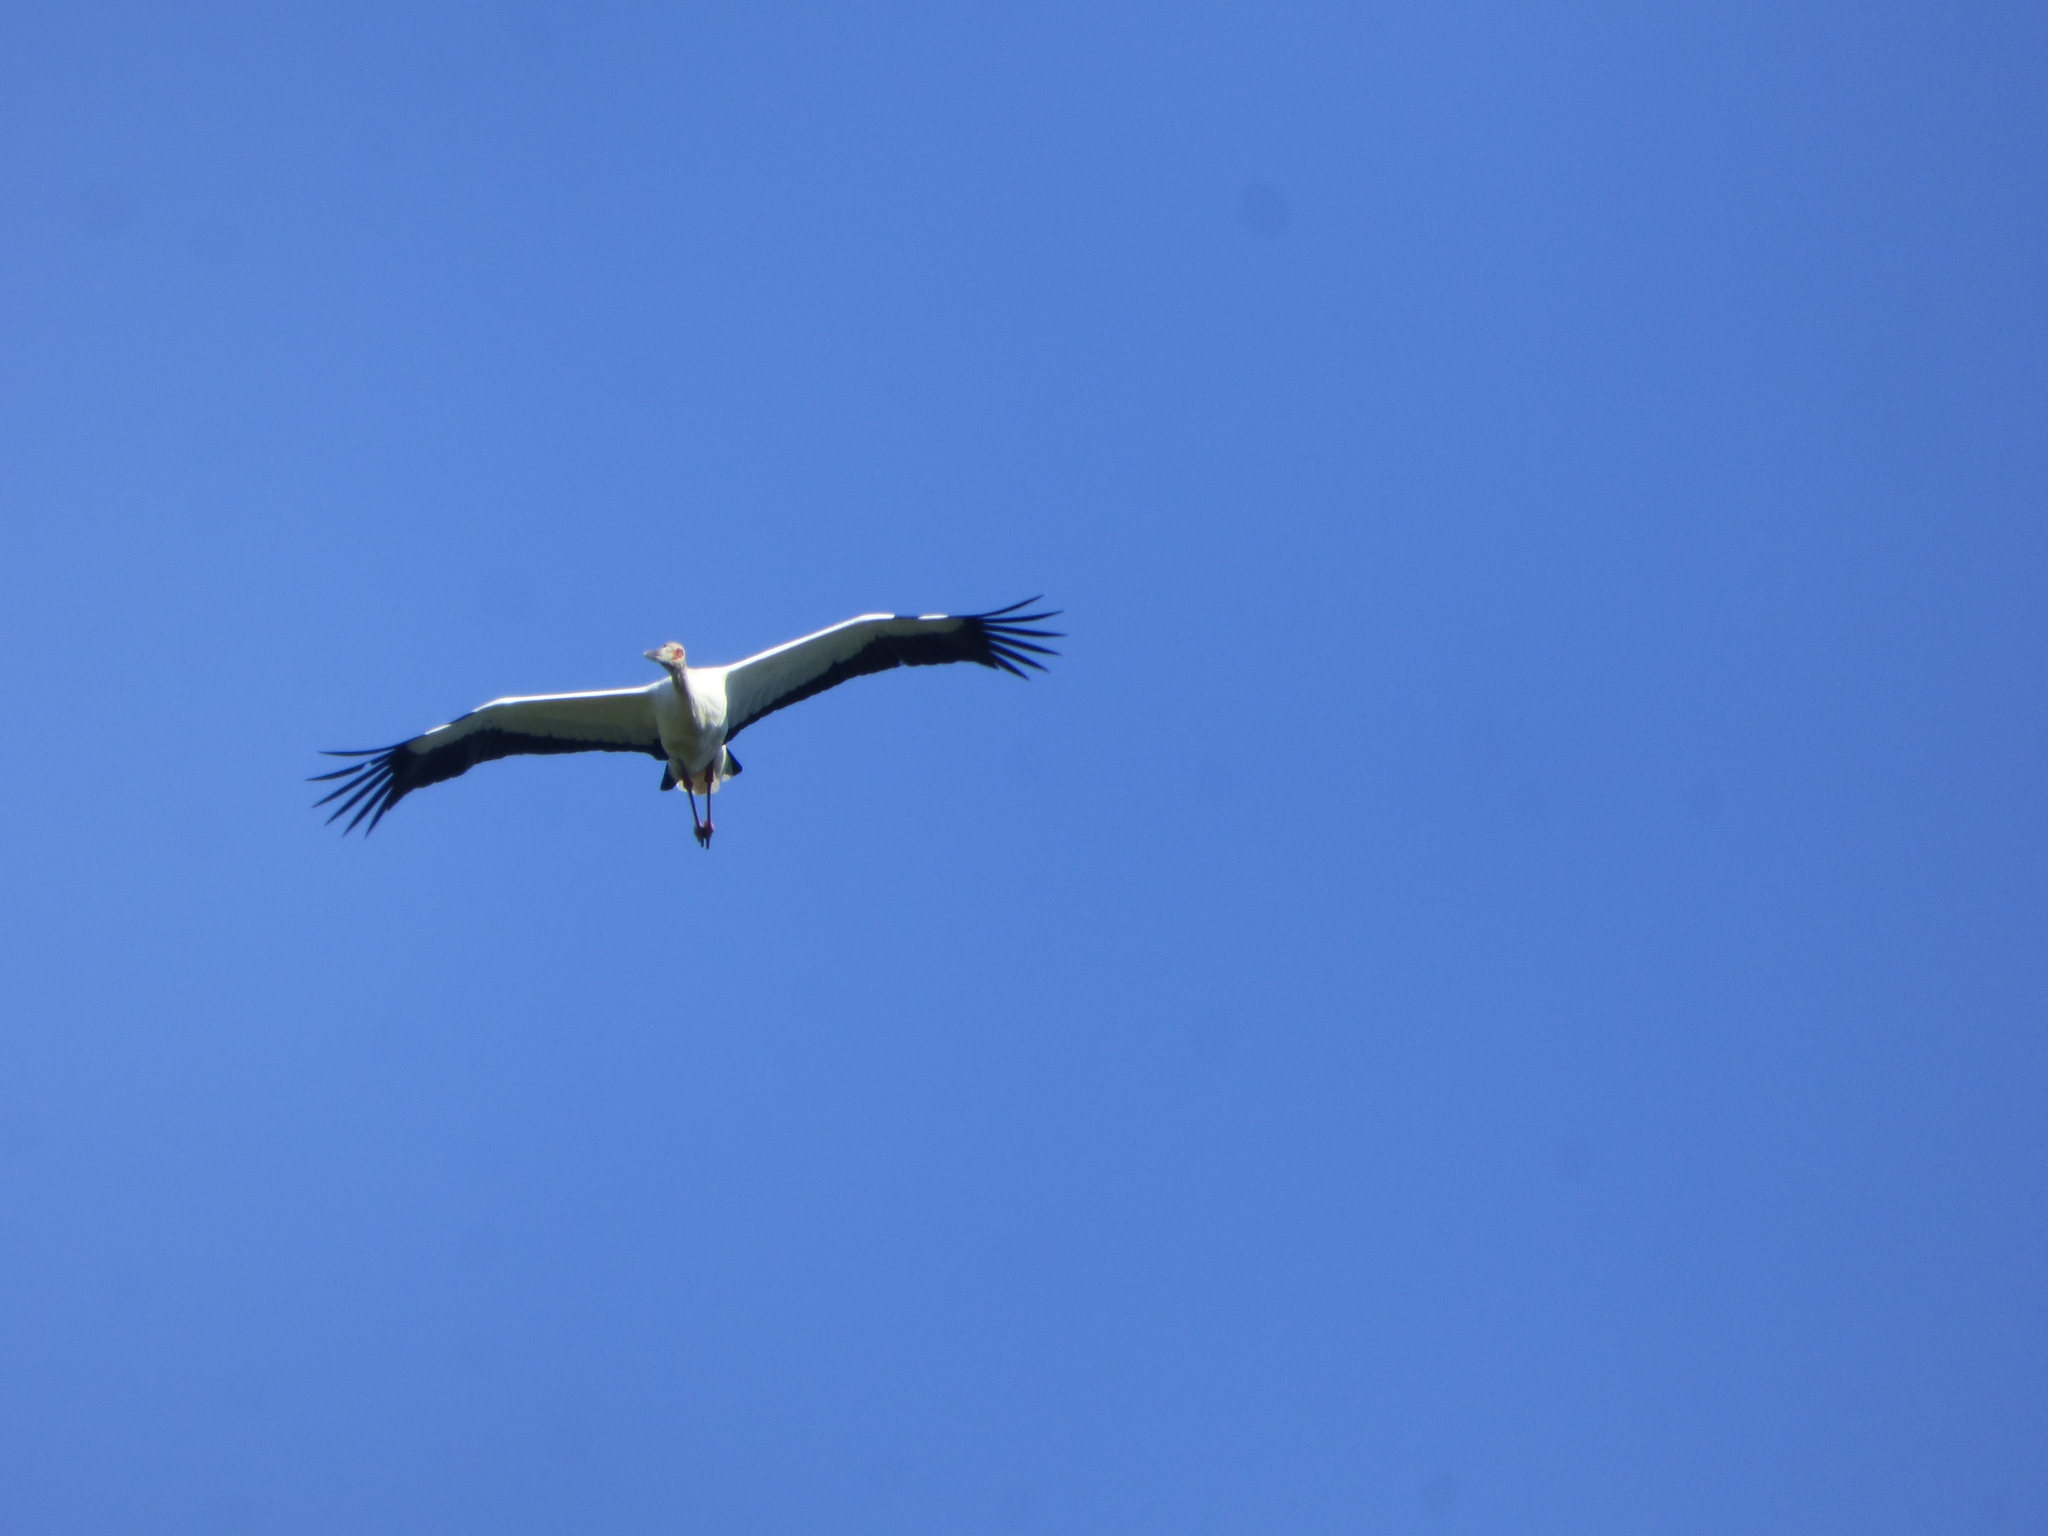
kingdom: Animalia
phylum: Chordata
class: Aves
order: Ciconiiformes
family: Ciconiidae
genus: Ciconia
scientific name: Ciconia maguari
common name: Maguari stork
